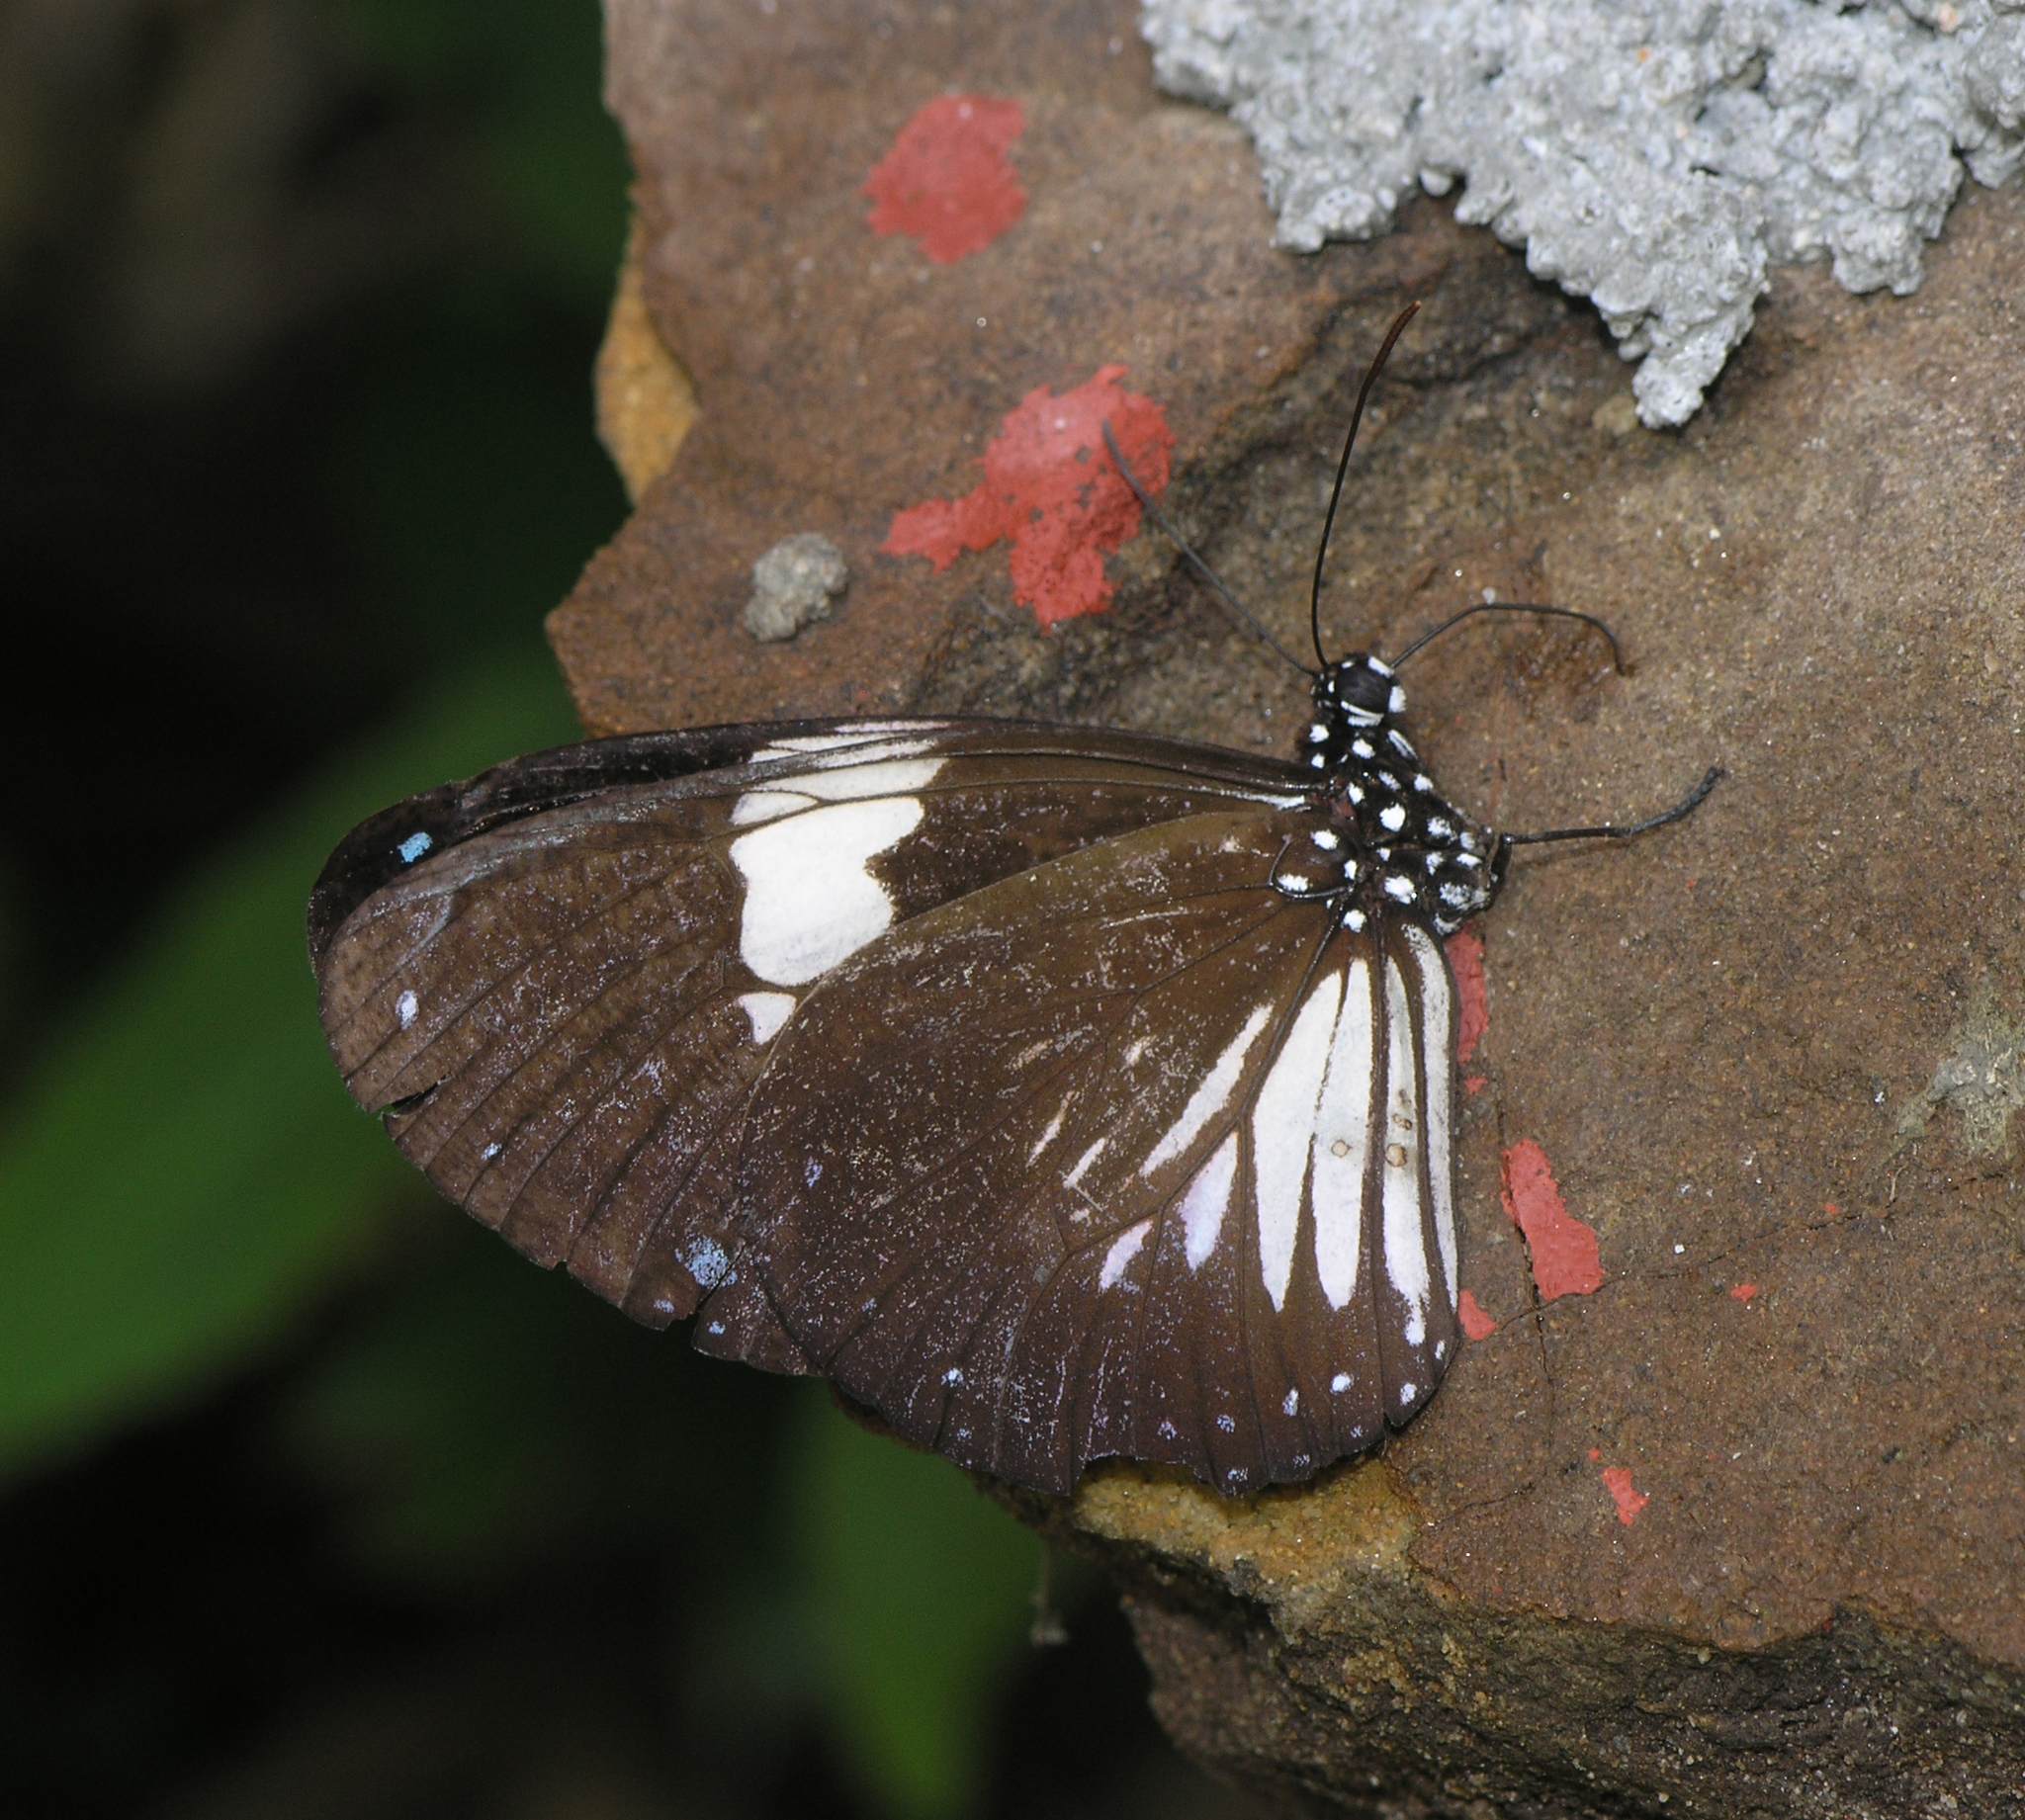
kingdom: Animalia
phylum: Arthropoda
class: Insecta
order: Lepidoptera
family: Nymphalidae
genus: Euploea
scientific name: Euploea radamanthus
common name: Magpie crow butterfly
